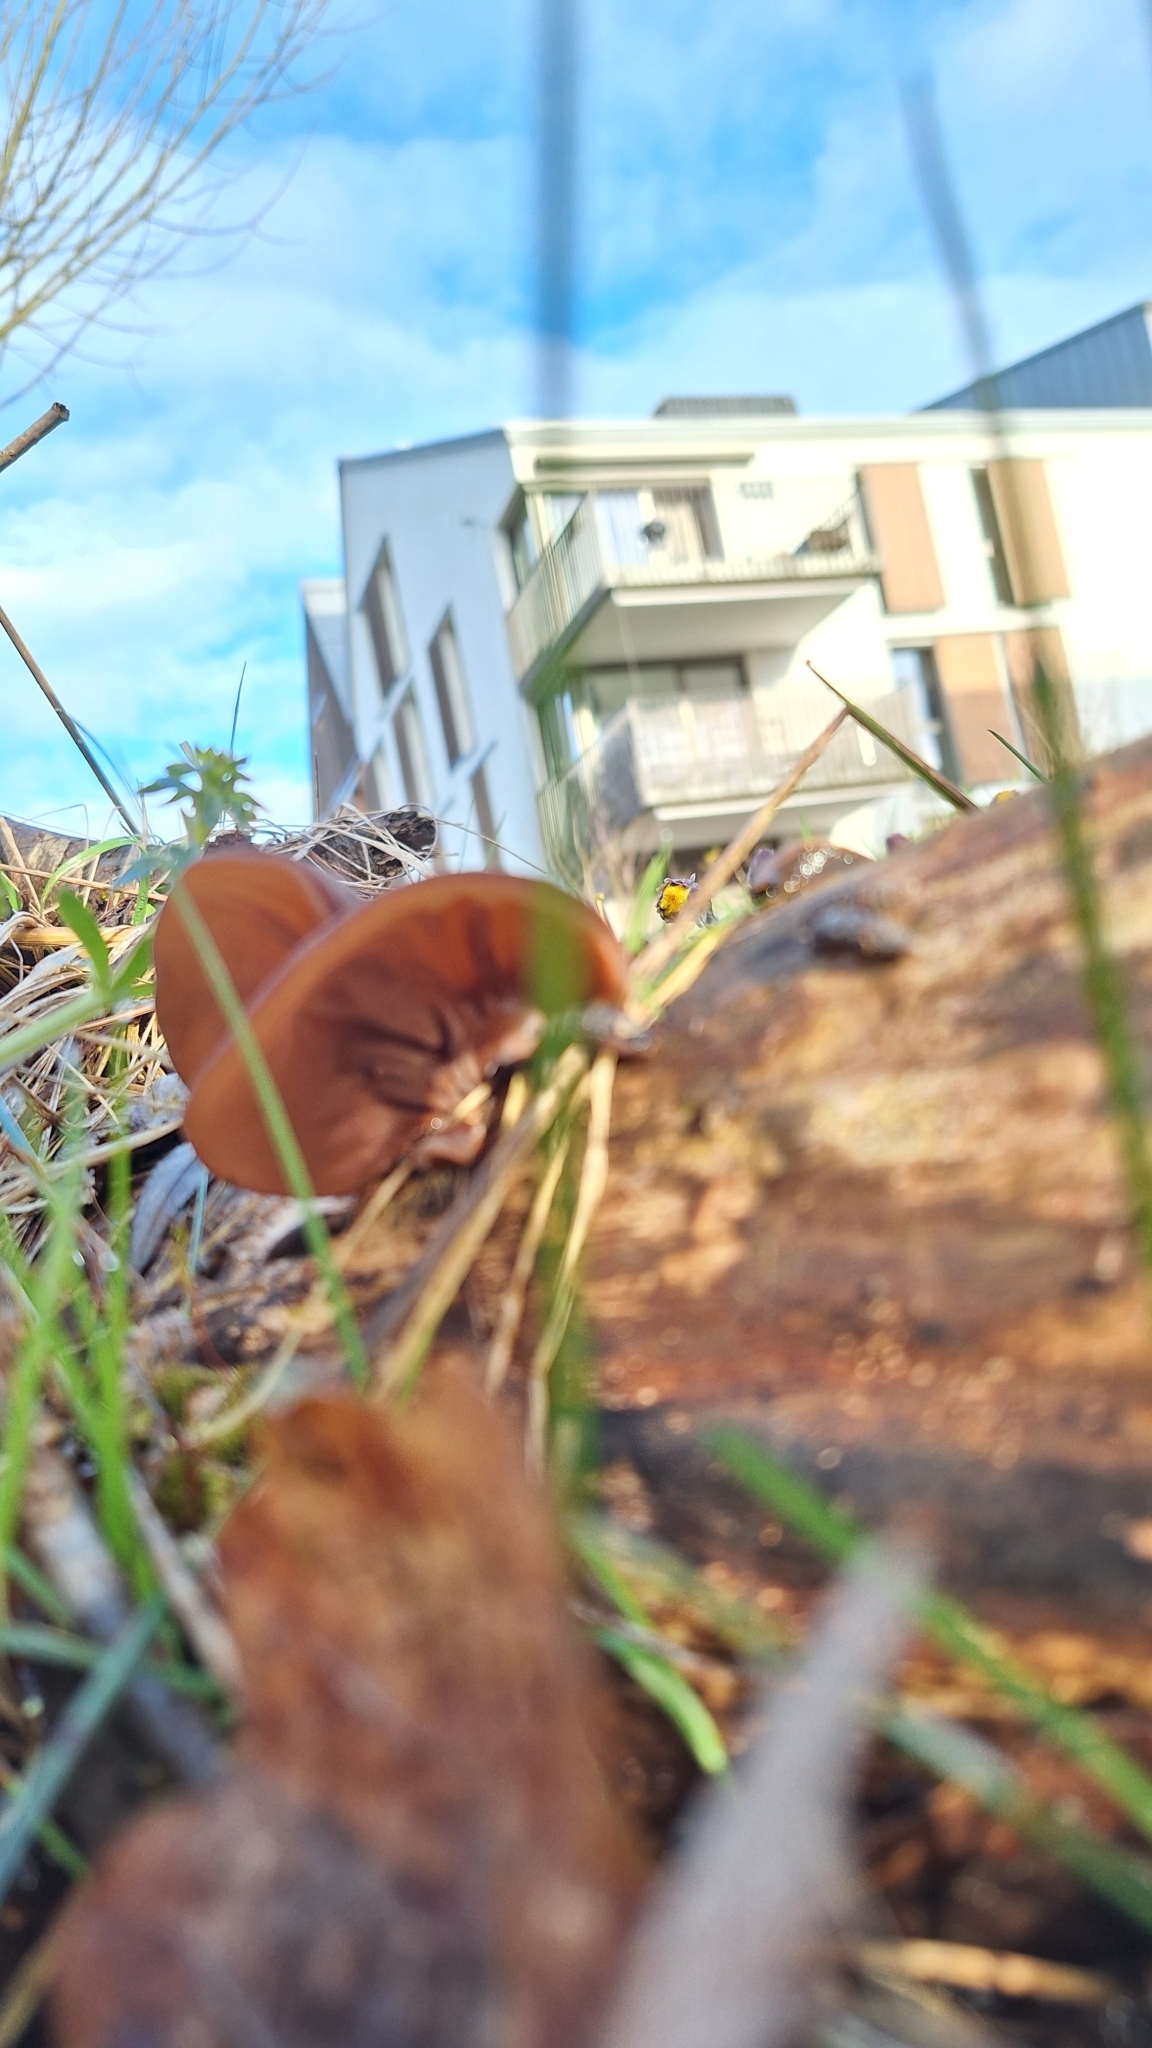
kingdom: Fungi
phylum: Basidiomycota
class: Agaricomycetes
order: Auriculariales
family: Auriculariaceae
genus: Auricularia
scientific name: Auricularia auricula-judae
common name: Jelly ear
